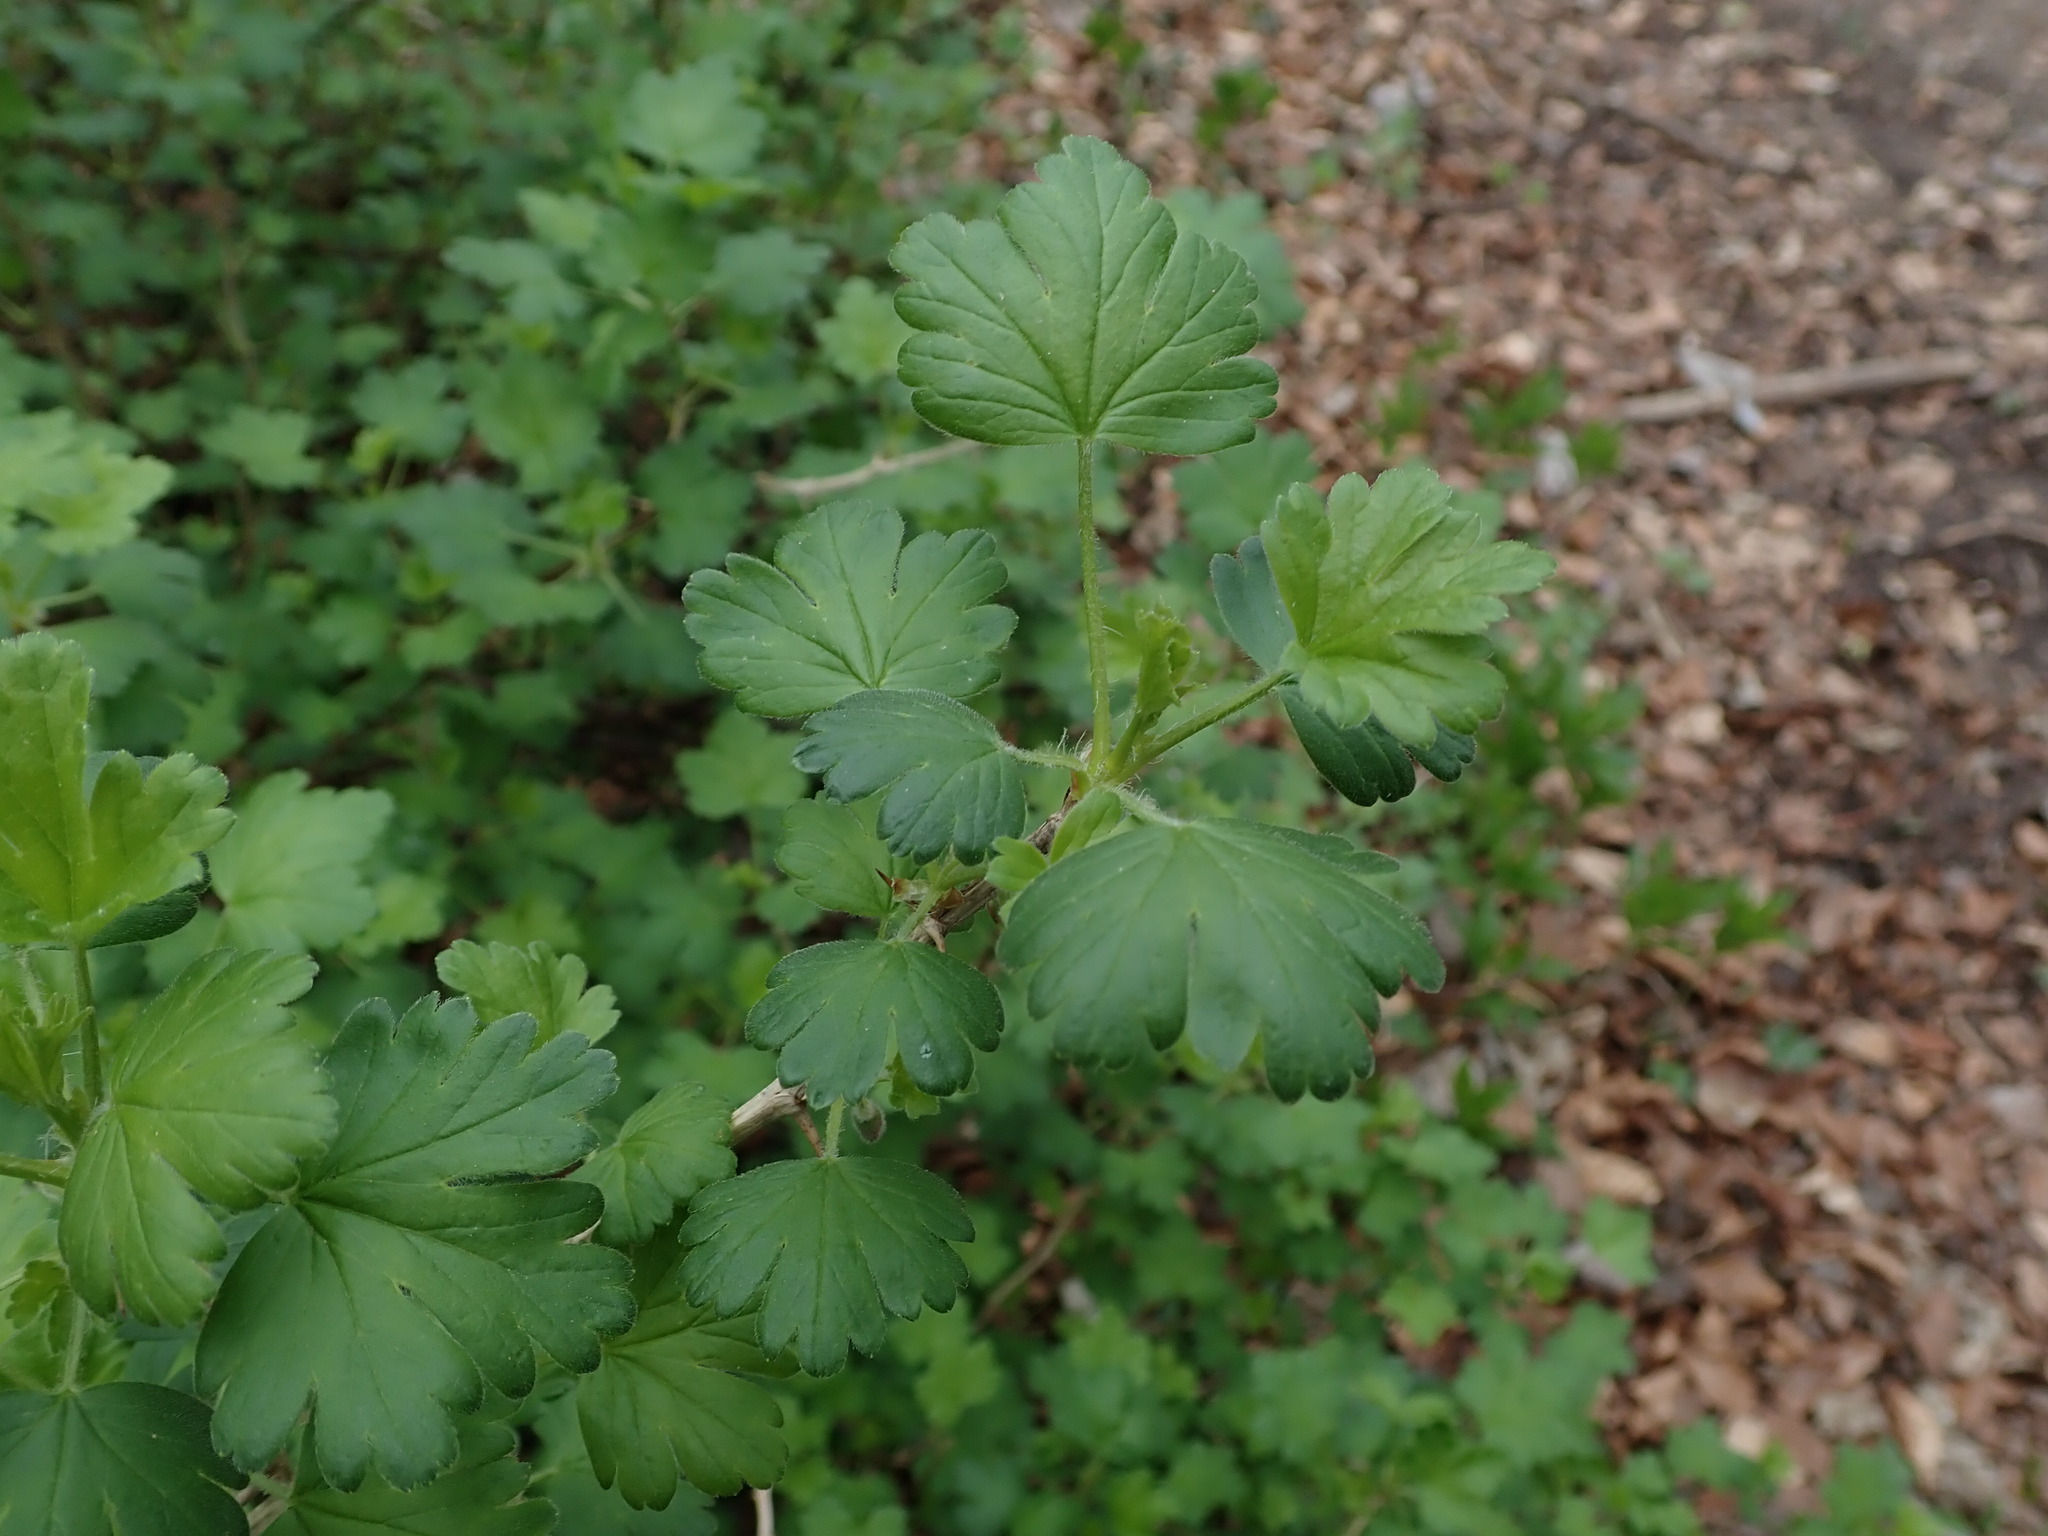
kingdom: Plantae
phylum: Tracheophyta
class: Magnoliopsida
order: Saxifragales
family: Grossulariaceae
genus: Ribes
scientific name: Ribes uva-crispa
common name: Gooseberry
